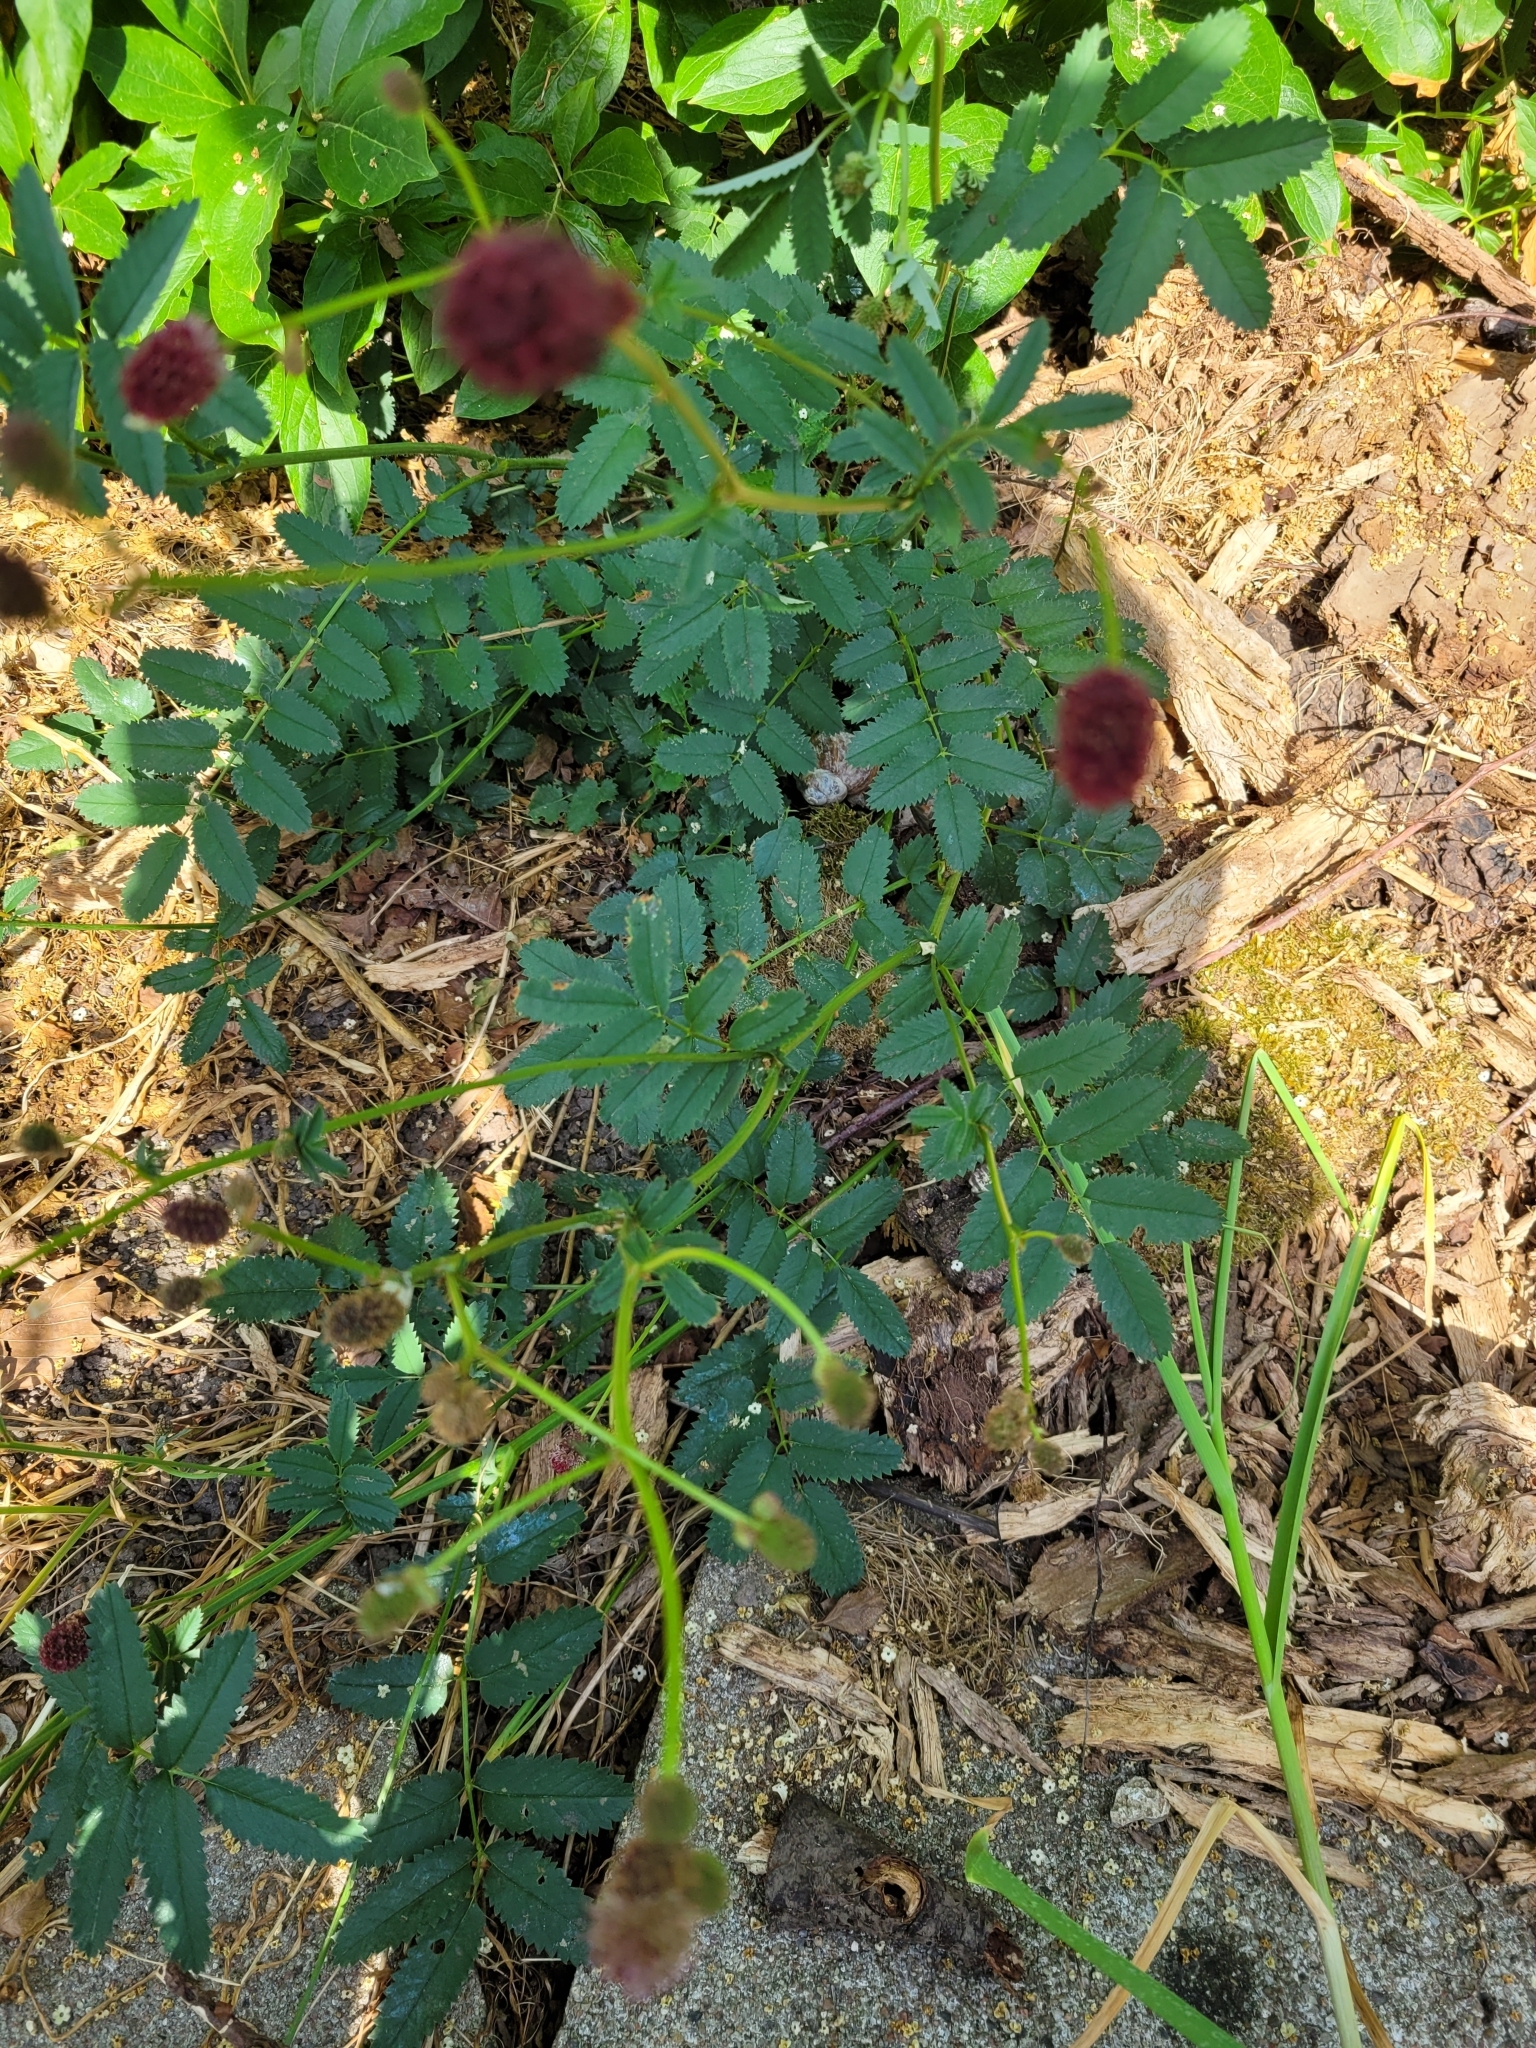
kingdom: Plantae
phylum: Tracheophyta
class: Magnoliopsida
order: Rosales
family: Rosaceae
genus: Sanguisorba
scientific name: Sanguisorba officinalis
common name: Great burnet
